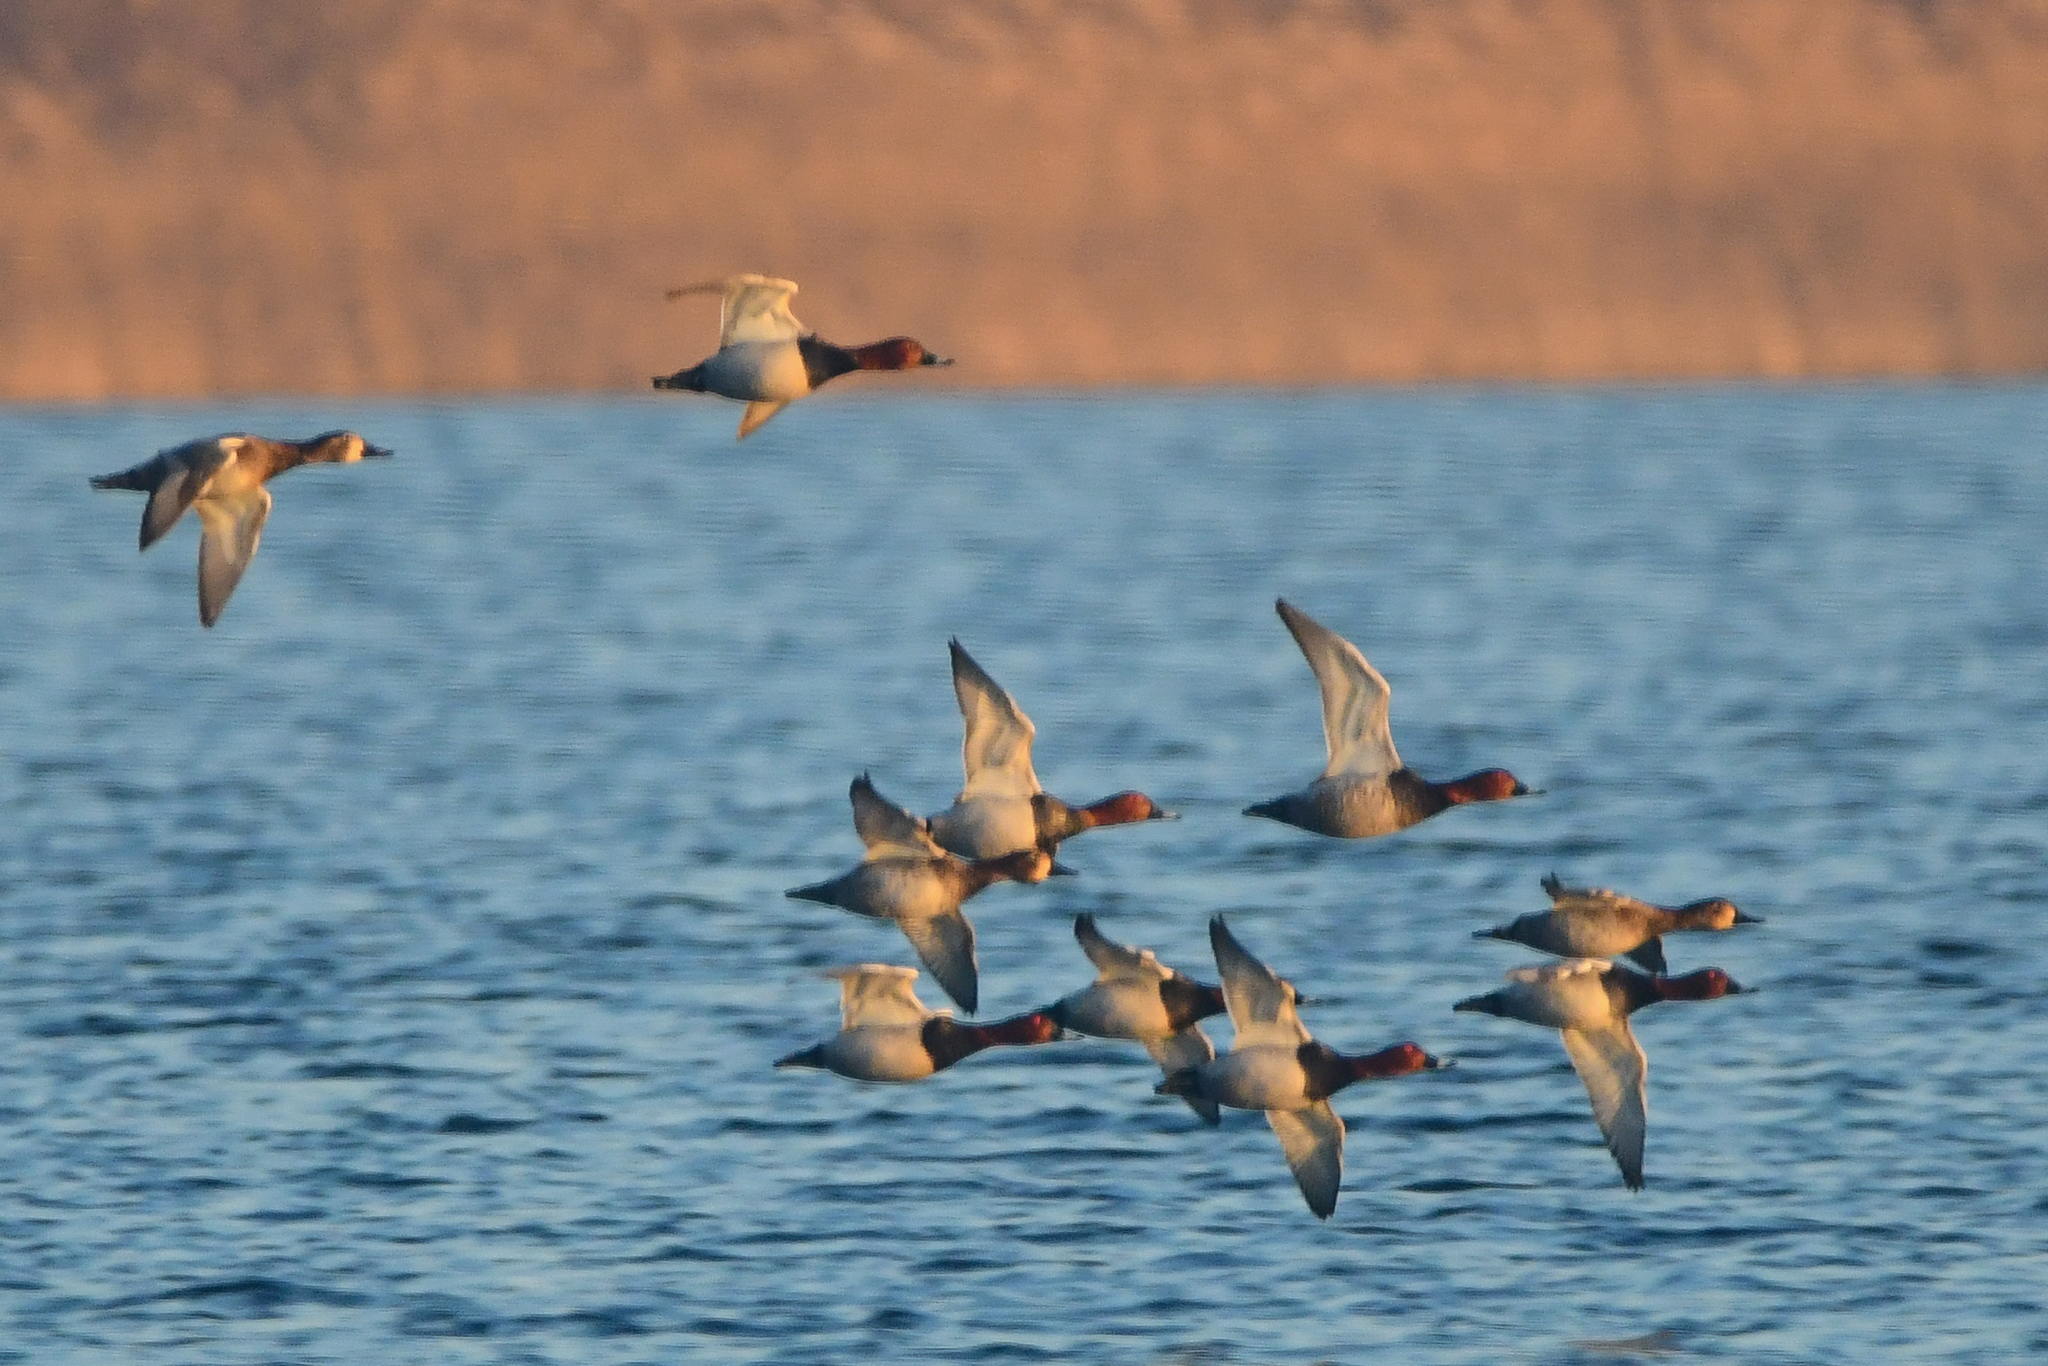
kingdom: Animalia
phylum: Chordata
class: Aves
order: Anseriformes
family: Anatidae
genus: Aythya
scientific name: Aythya ferina
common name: Common pochard
